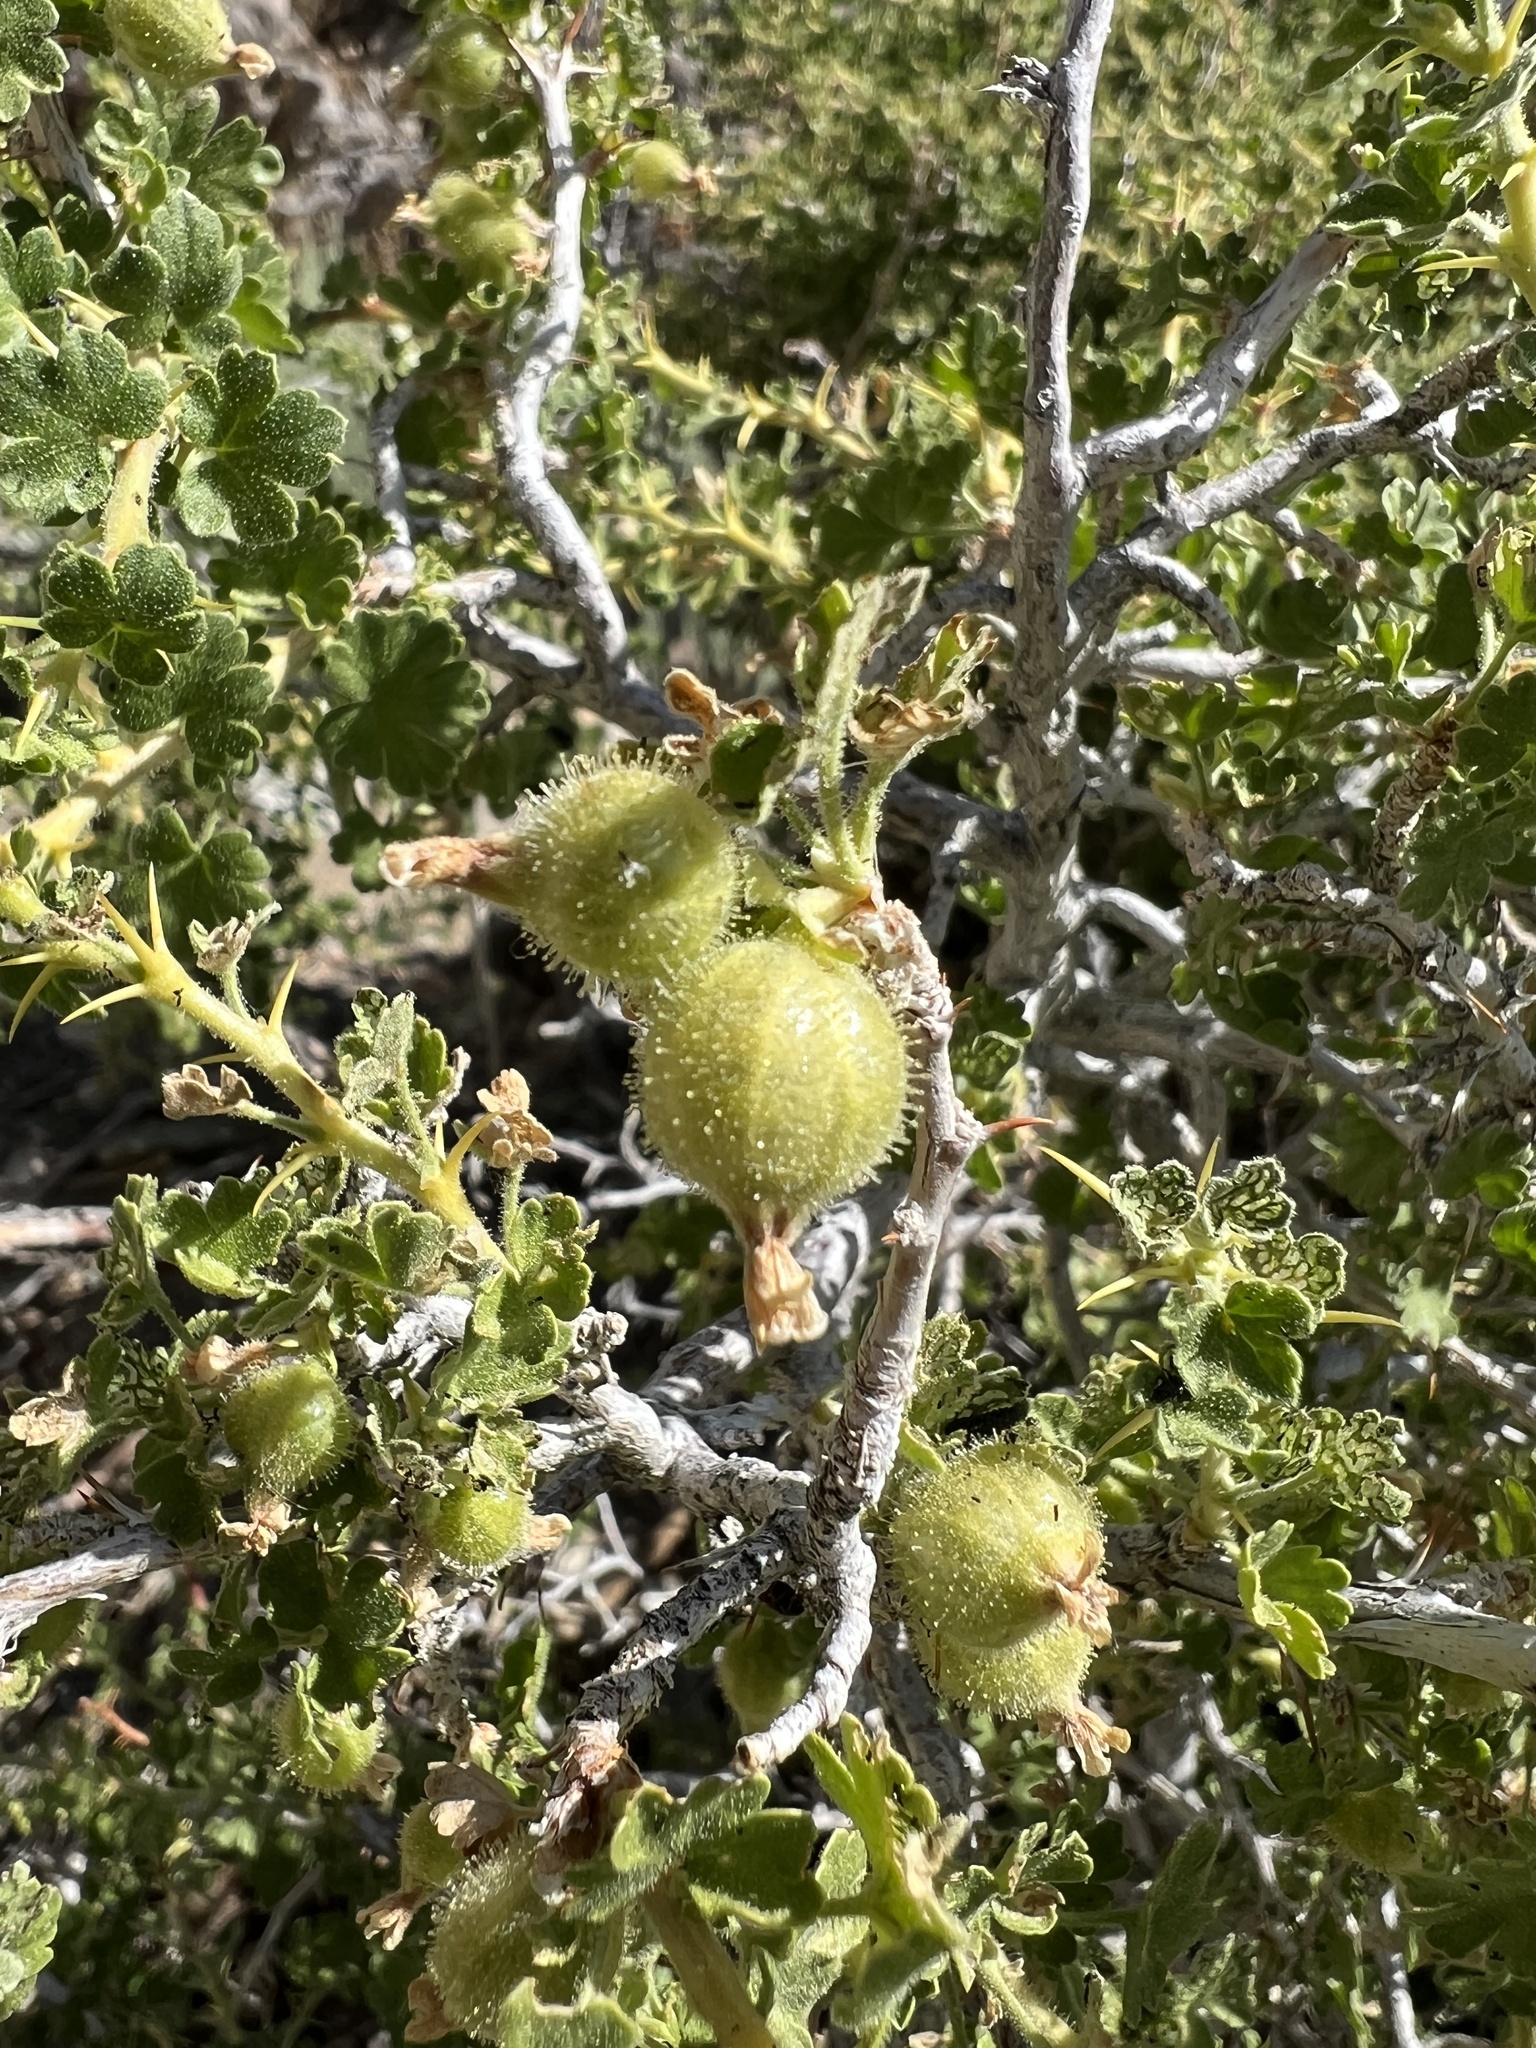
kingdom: Plantae
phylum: Tracheophyta
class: Magnoliopsida
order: Saxifragales
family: Grossulariaceae
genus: Ribes
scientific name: Ribes velutinum
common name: Desert gooseberry
